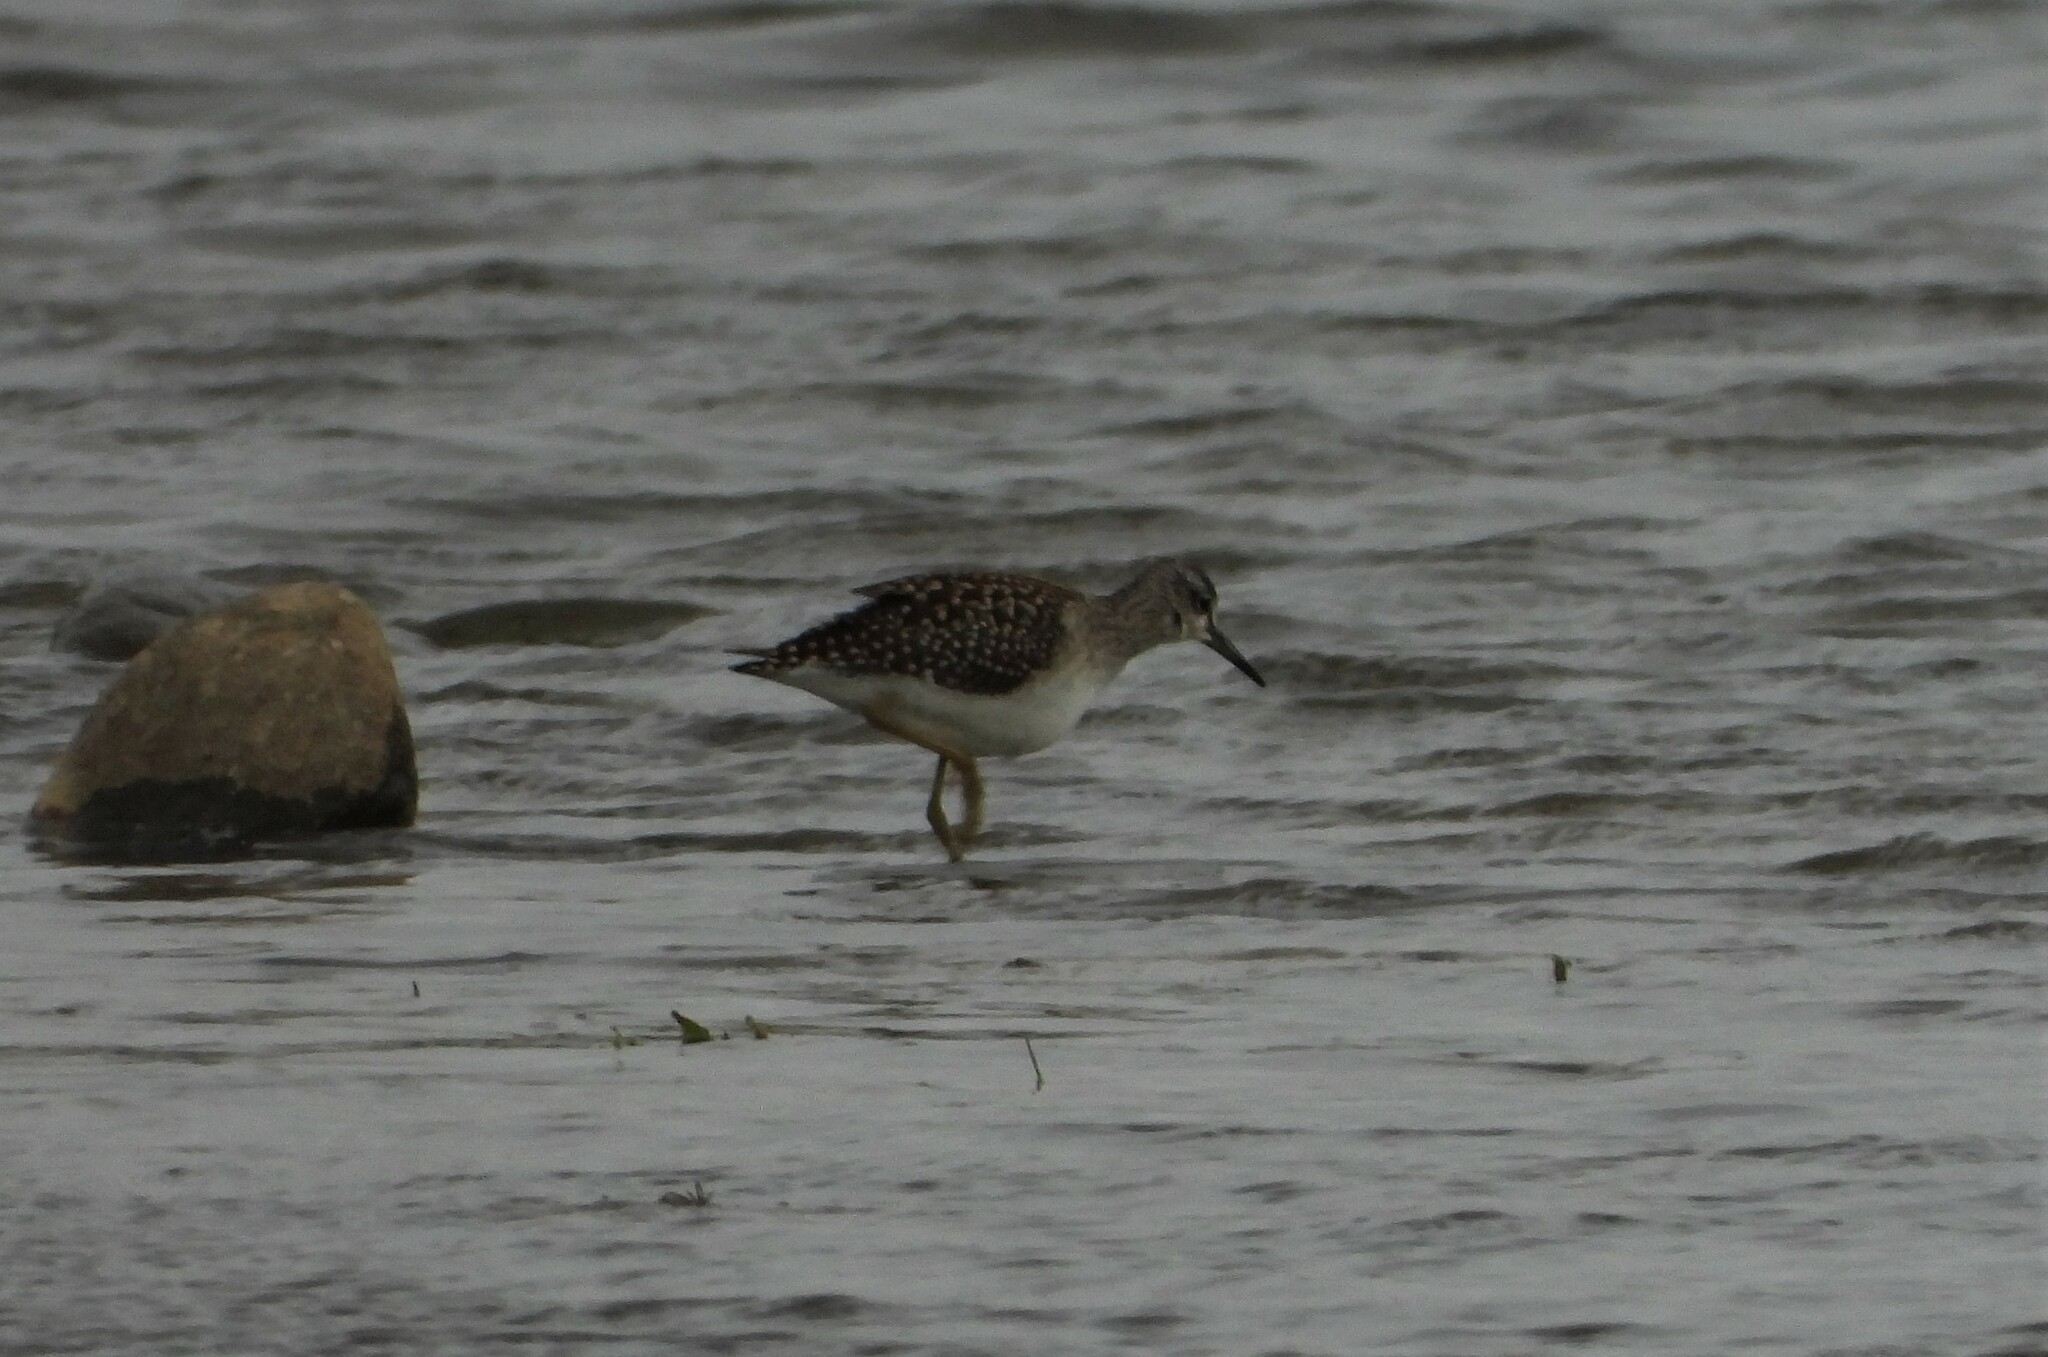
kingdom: Animalia
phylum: Chordata
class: Aves
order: Charadriiformes
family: Scolopacidae
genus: Tringa
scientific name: Tringa glareola
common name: Wood sandpiper
